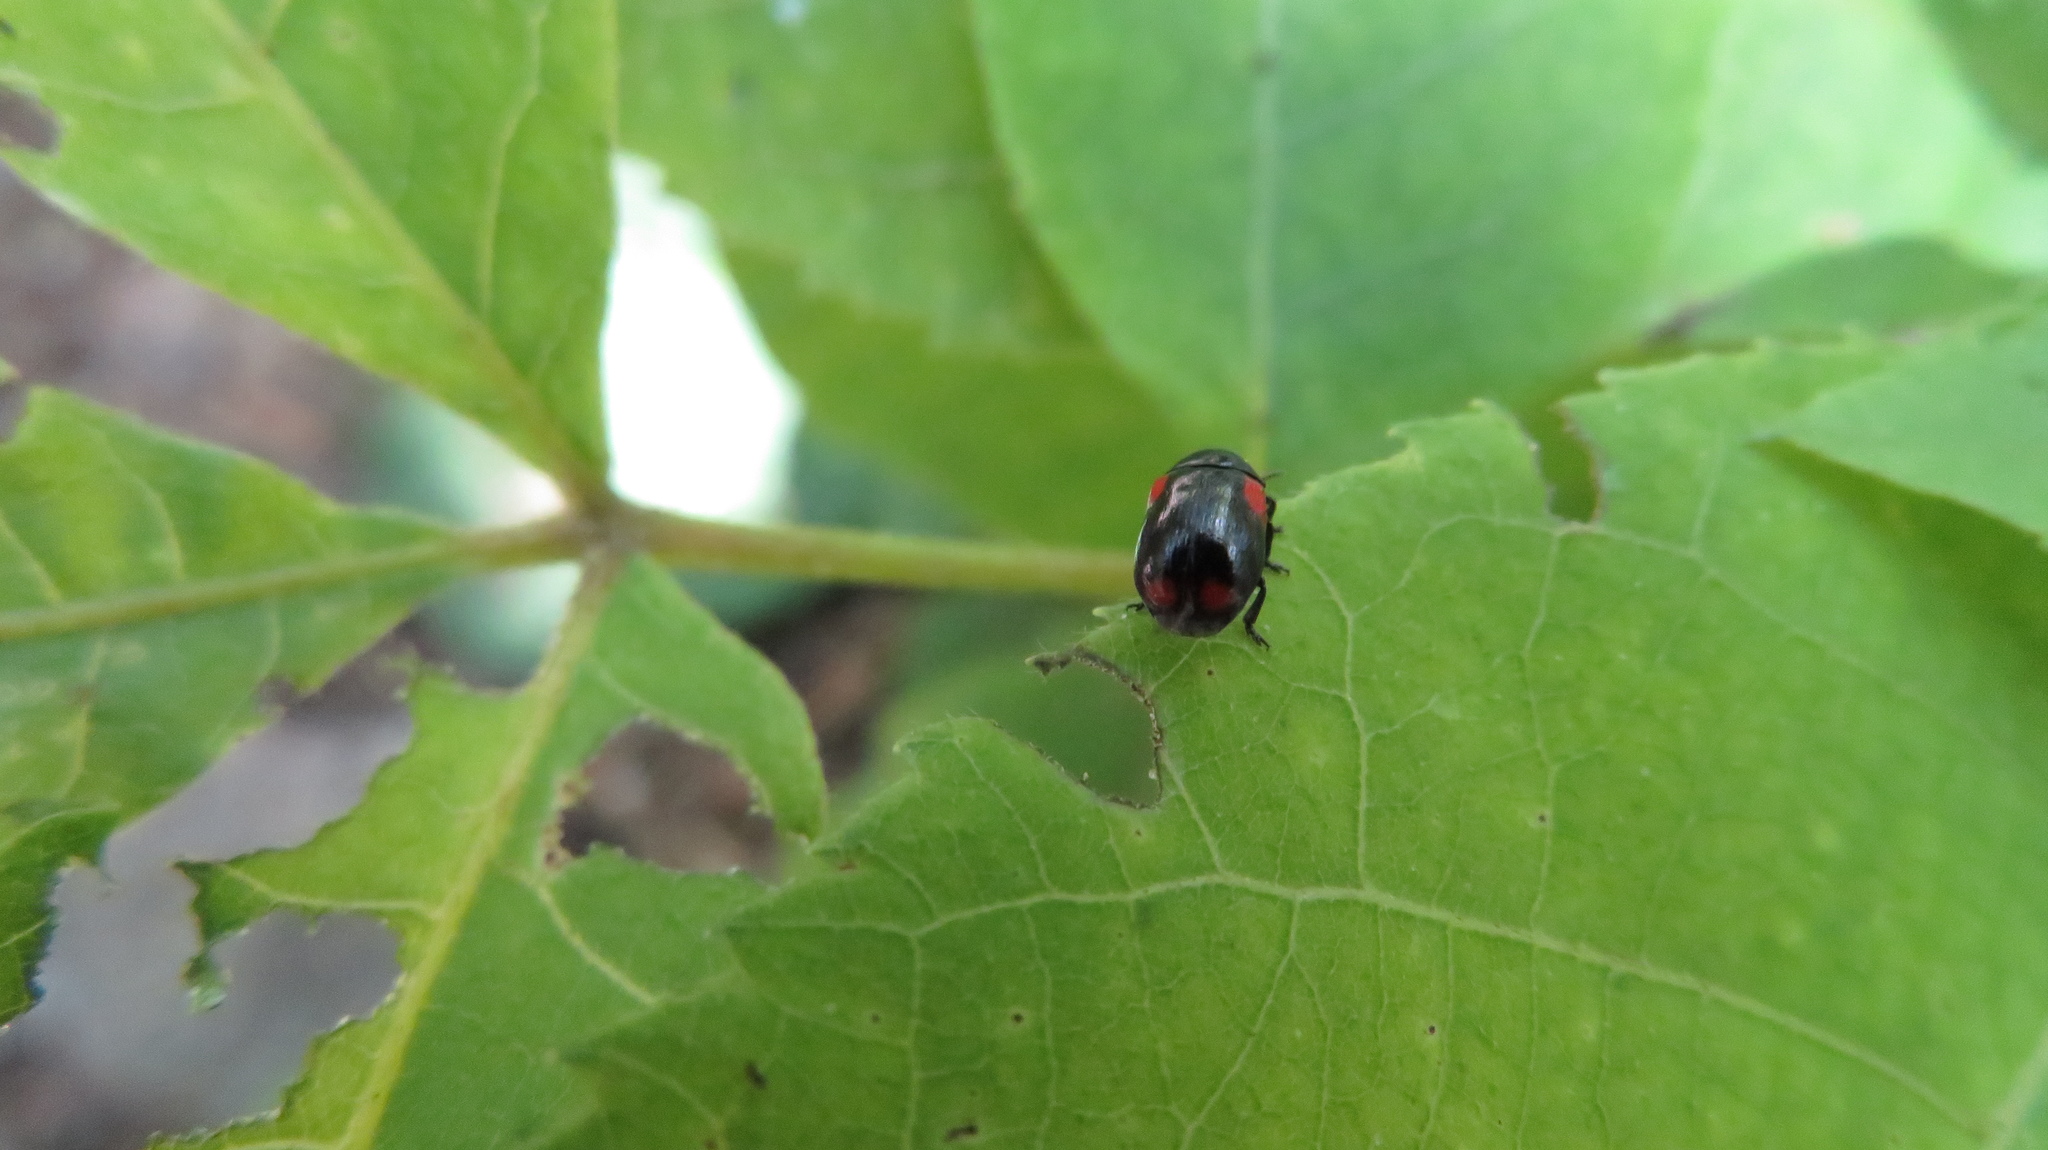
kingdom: Animalia
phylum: Arthropoda
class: Insecta
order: Coleoptera
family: Chrysomelidae
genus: Babia
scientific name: Babia quadriguttata
